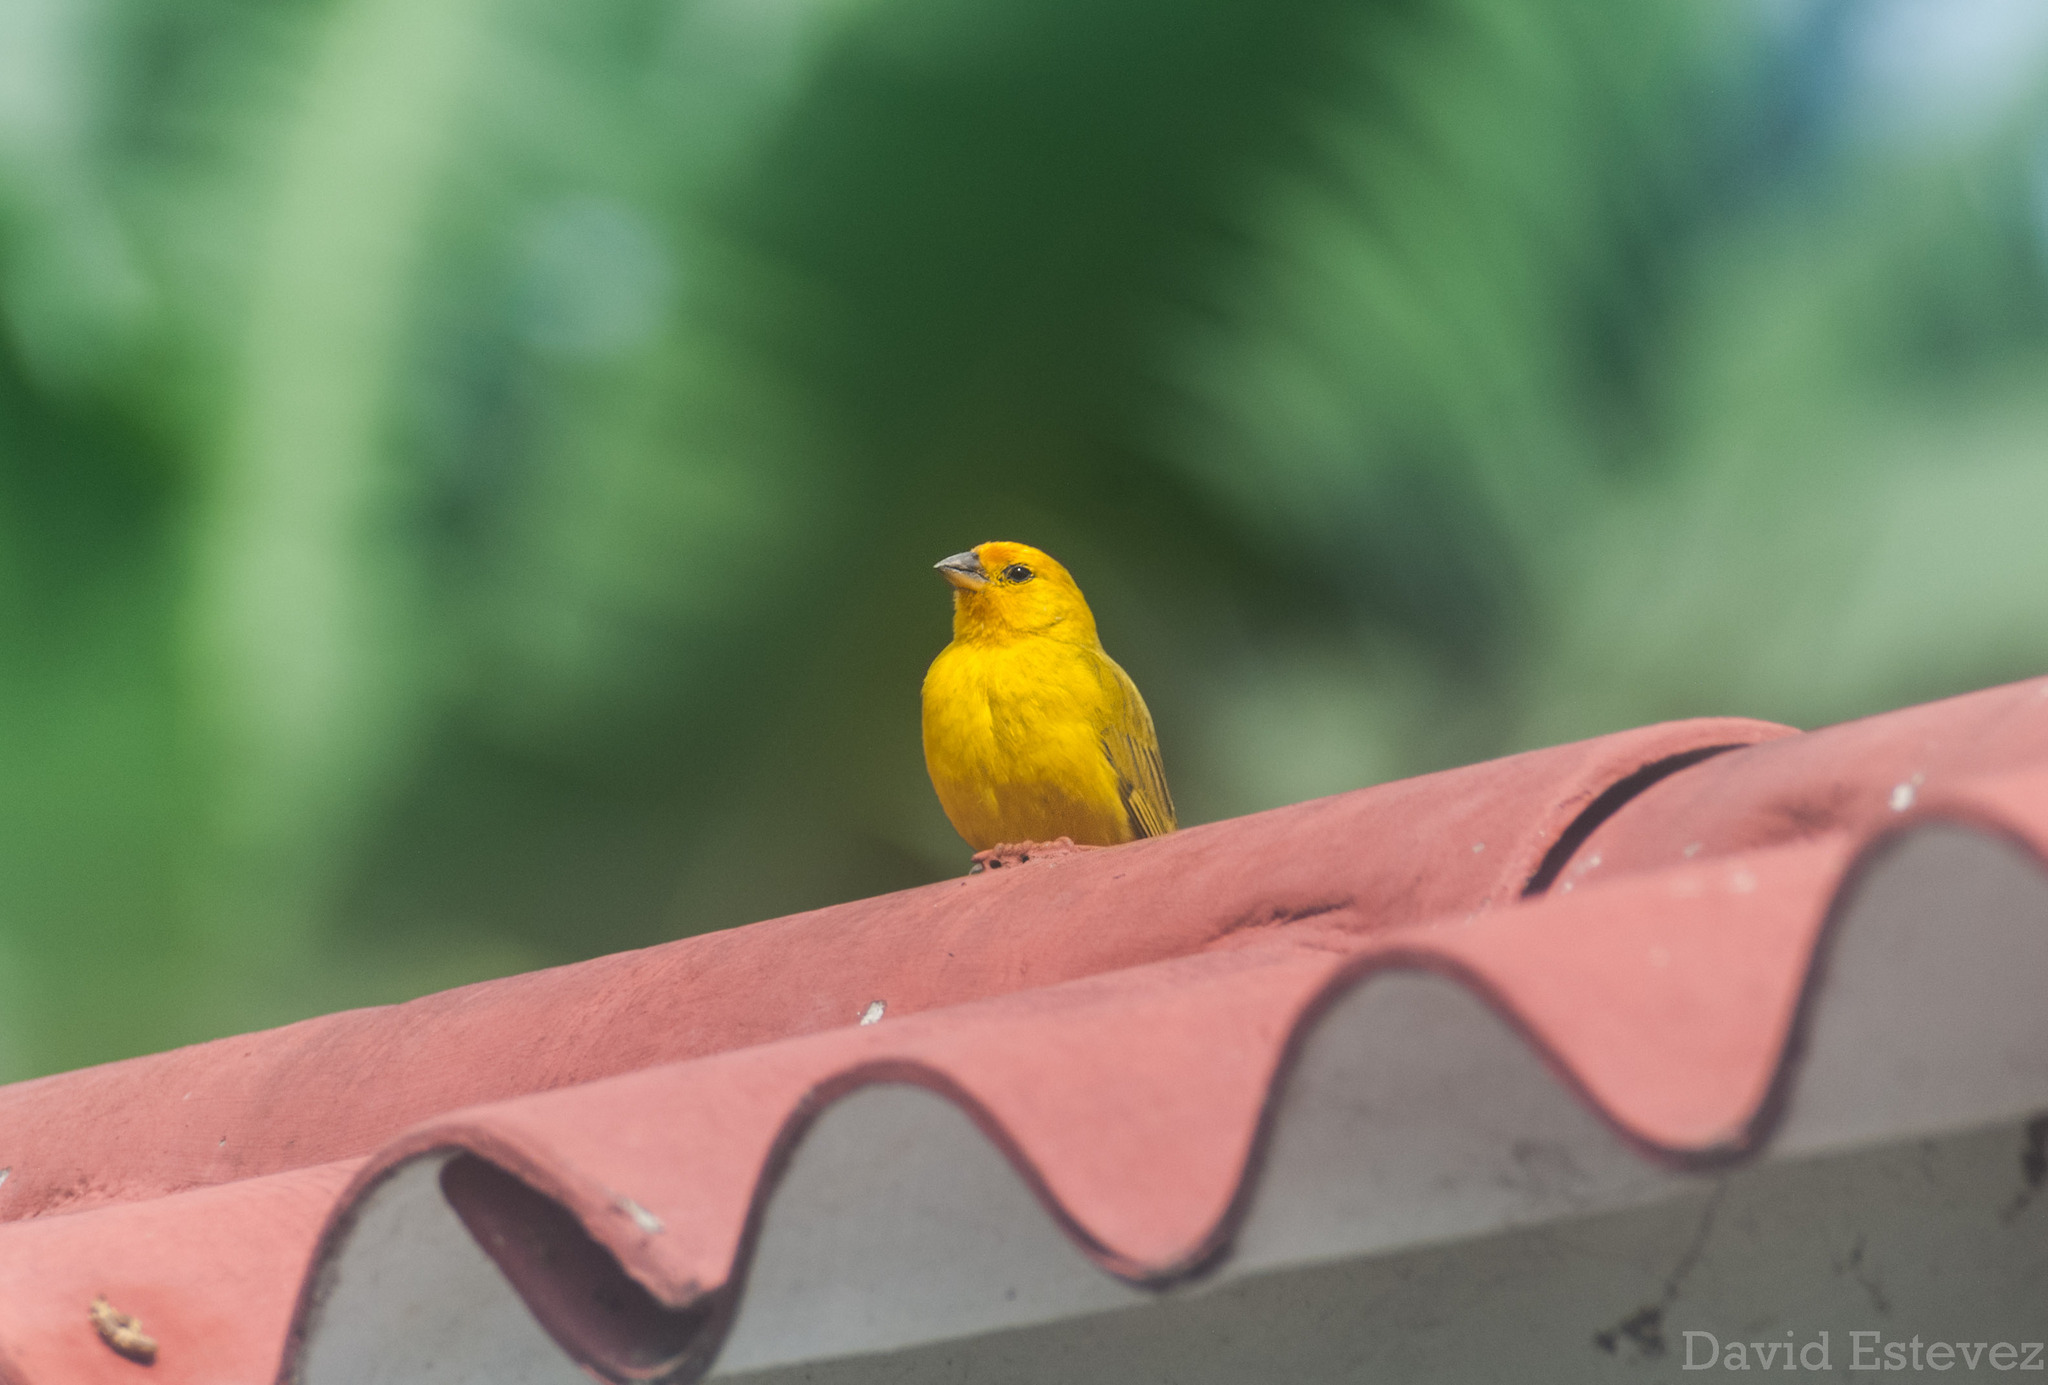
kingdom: Animalia
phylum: Chordata
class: Aves
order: Passeriformes
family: Thraupidae
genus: Sicalis
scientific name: Sicalis flaveola
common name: Saffron finch
